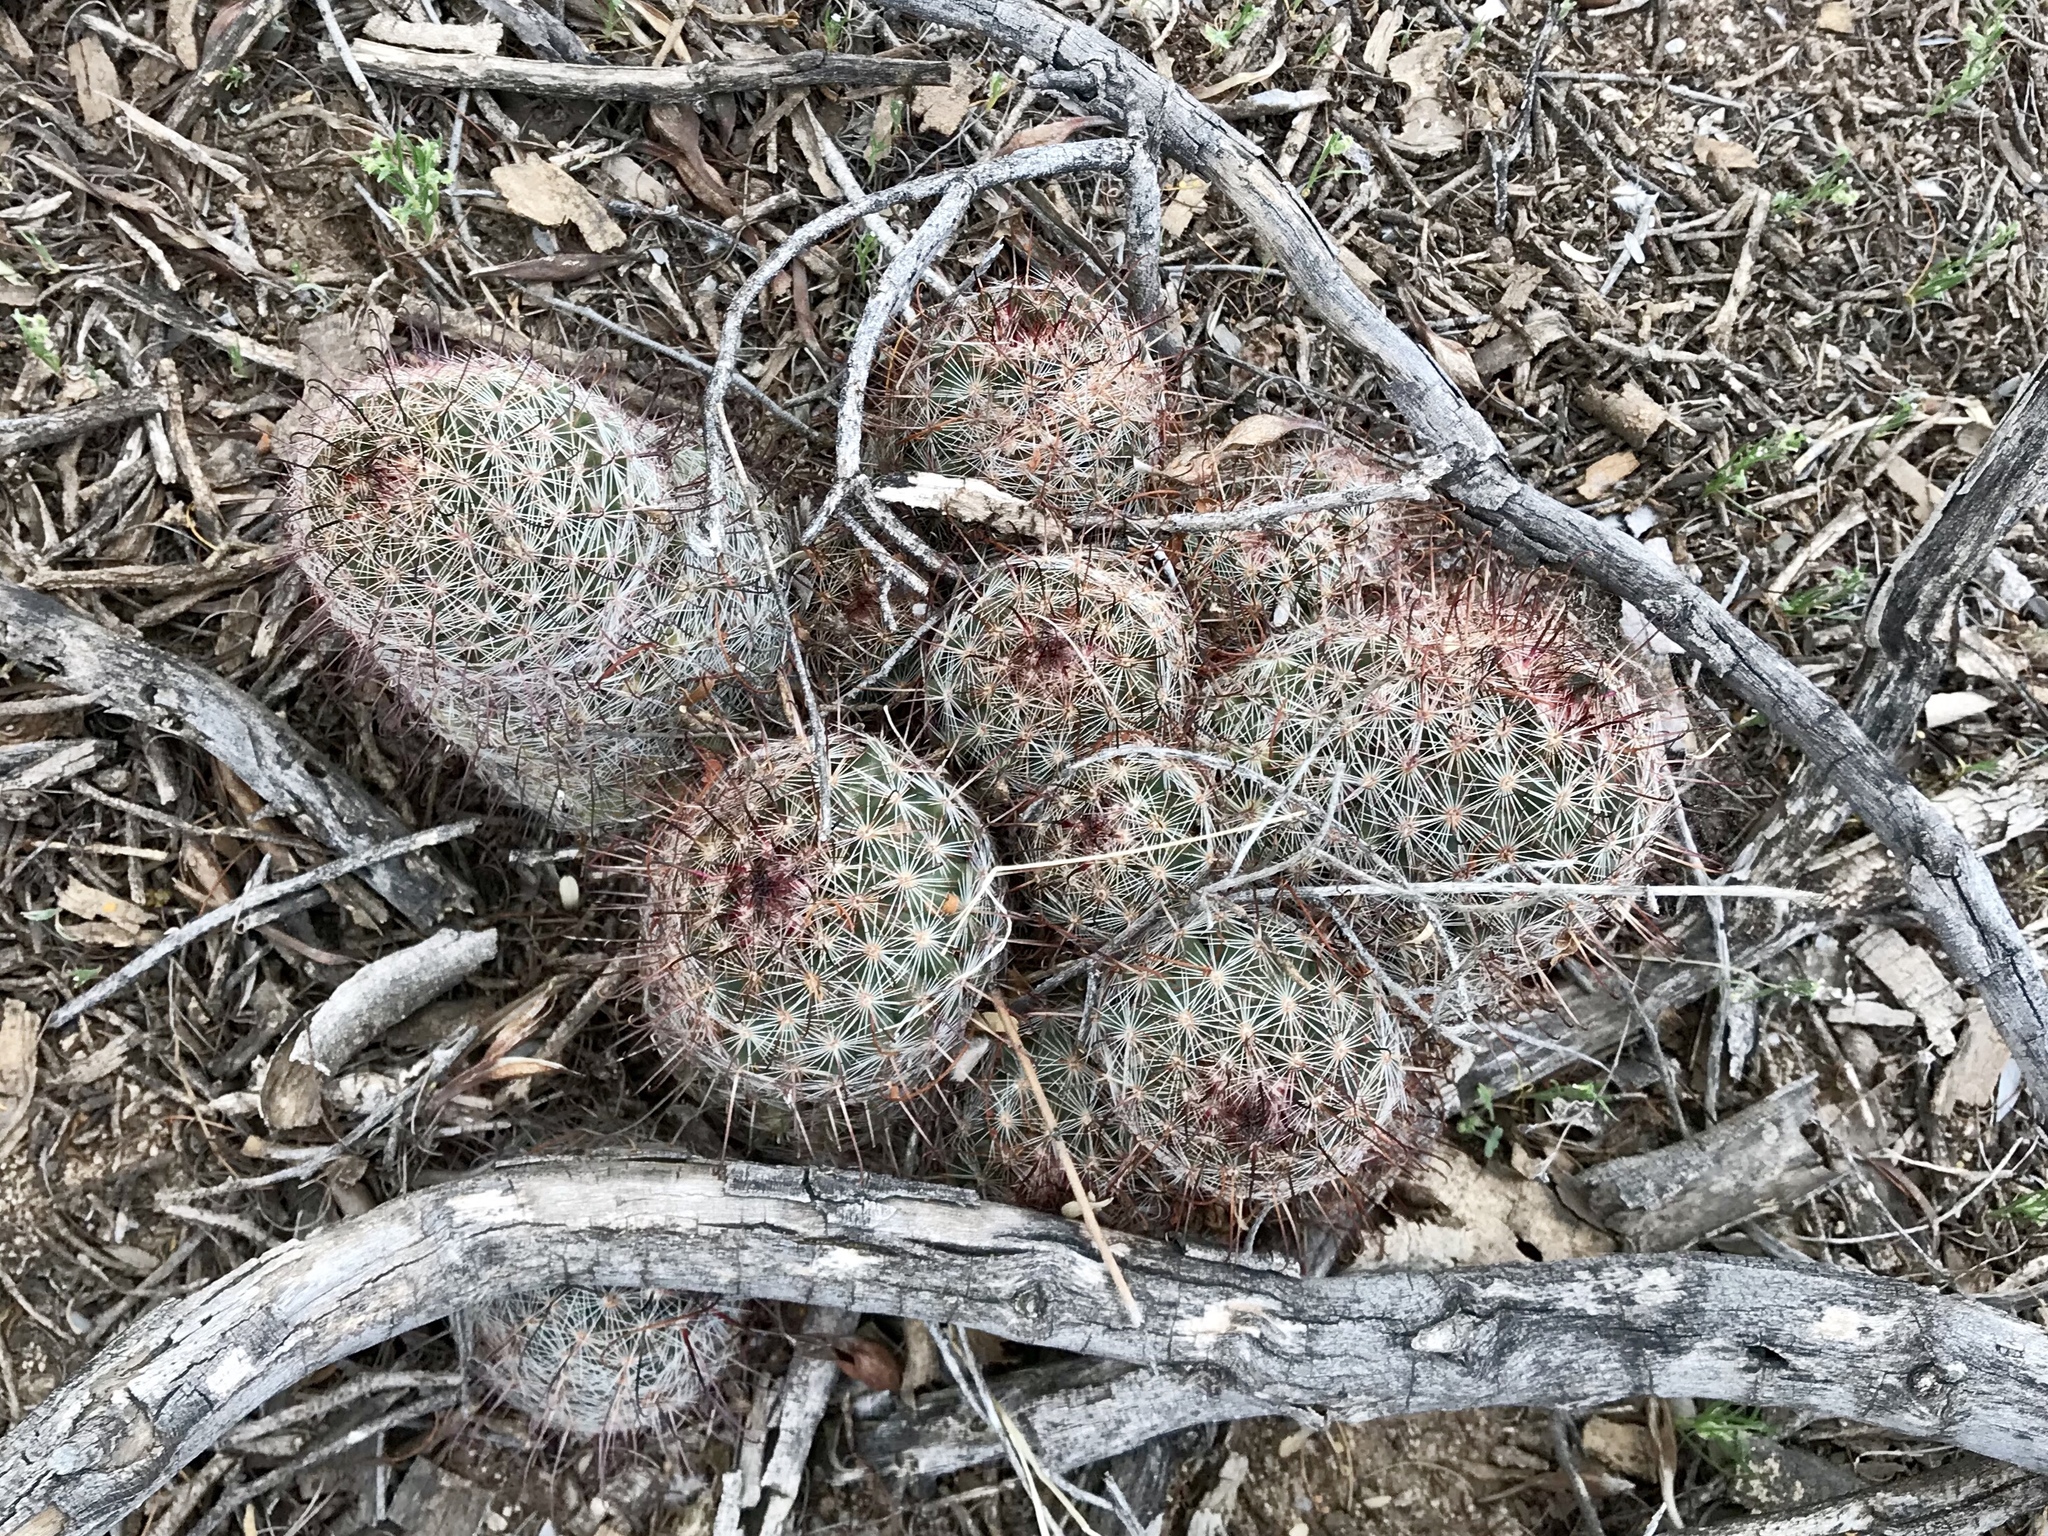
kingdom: Plantae
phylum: Tracheophyta
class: Magnoliopsida
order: Caryophyllales
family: Cactaceae
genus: Cochemiea
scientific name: Cochemiea grahamii
